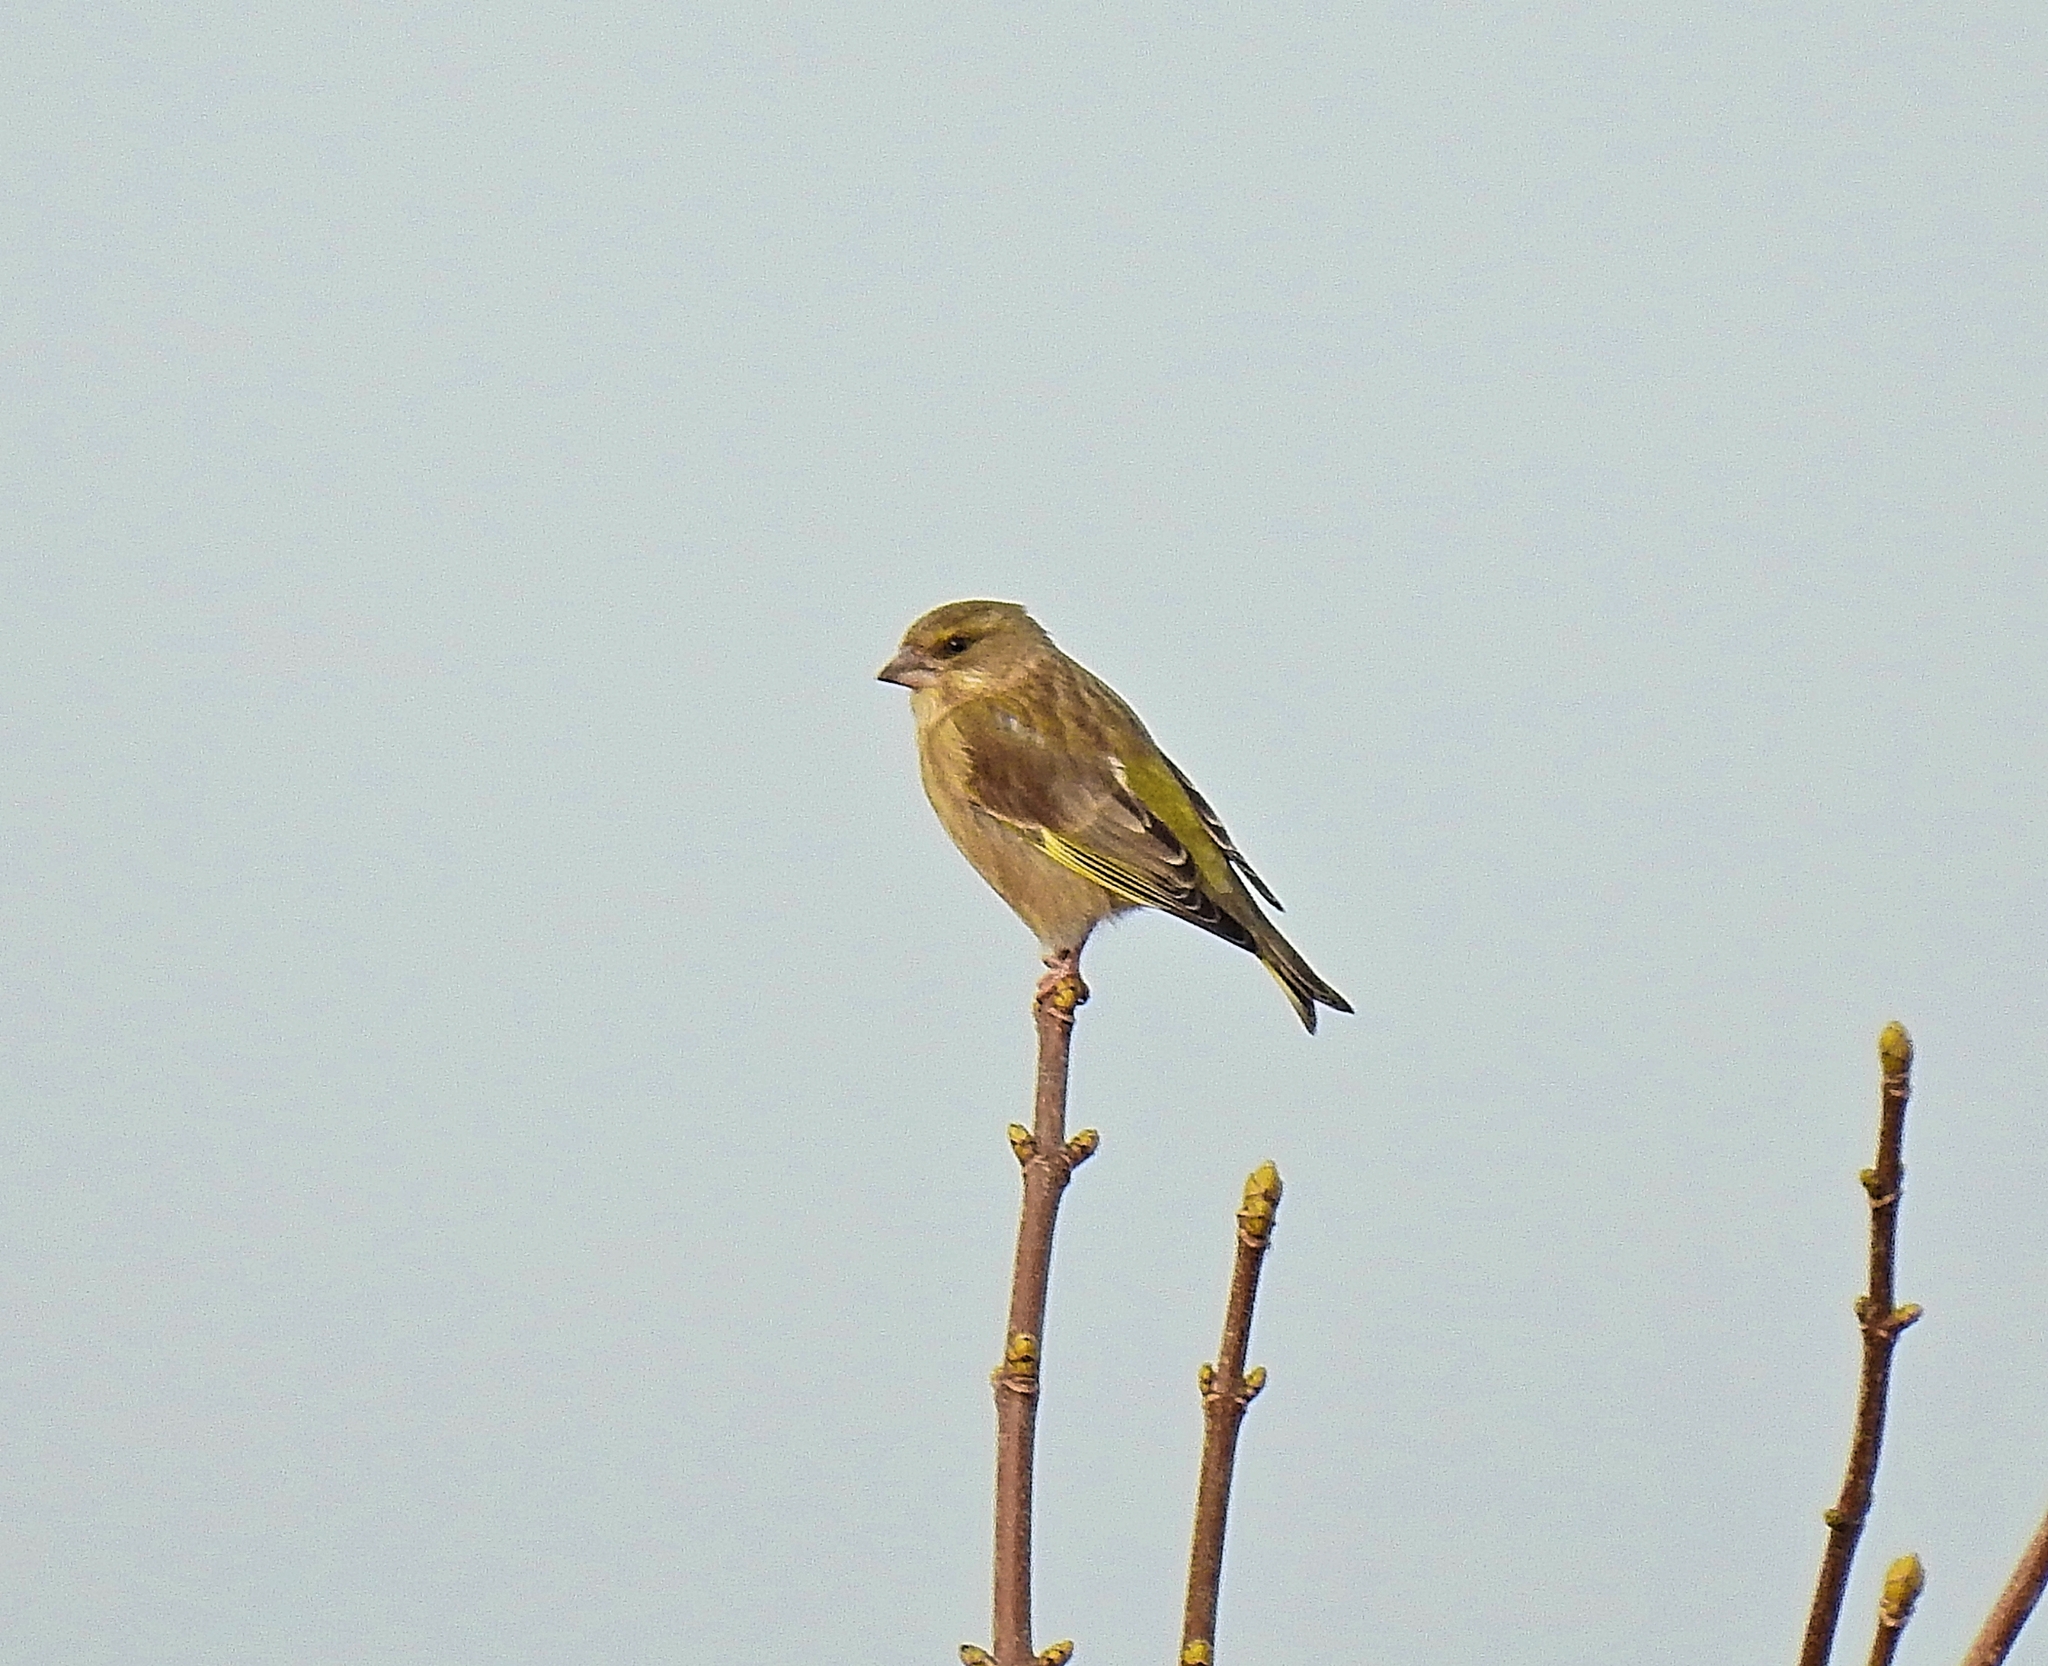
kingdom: Plantae
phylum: Tracheophyta
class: Liliopsida
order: Poales
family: Poaceae
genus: Chloris
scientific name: Chloris chloris
